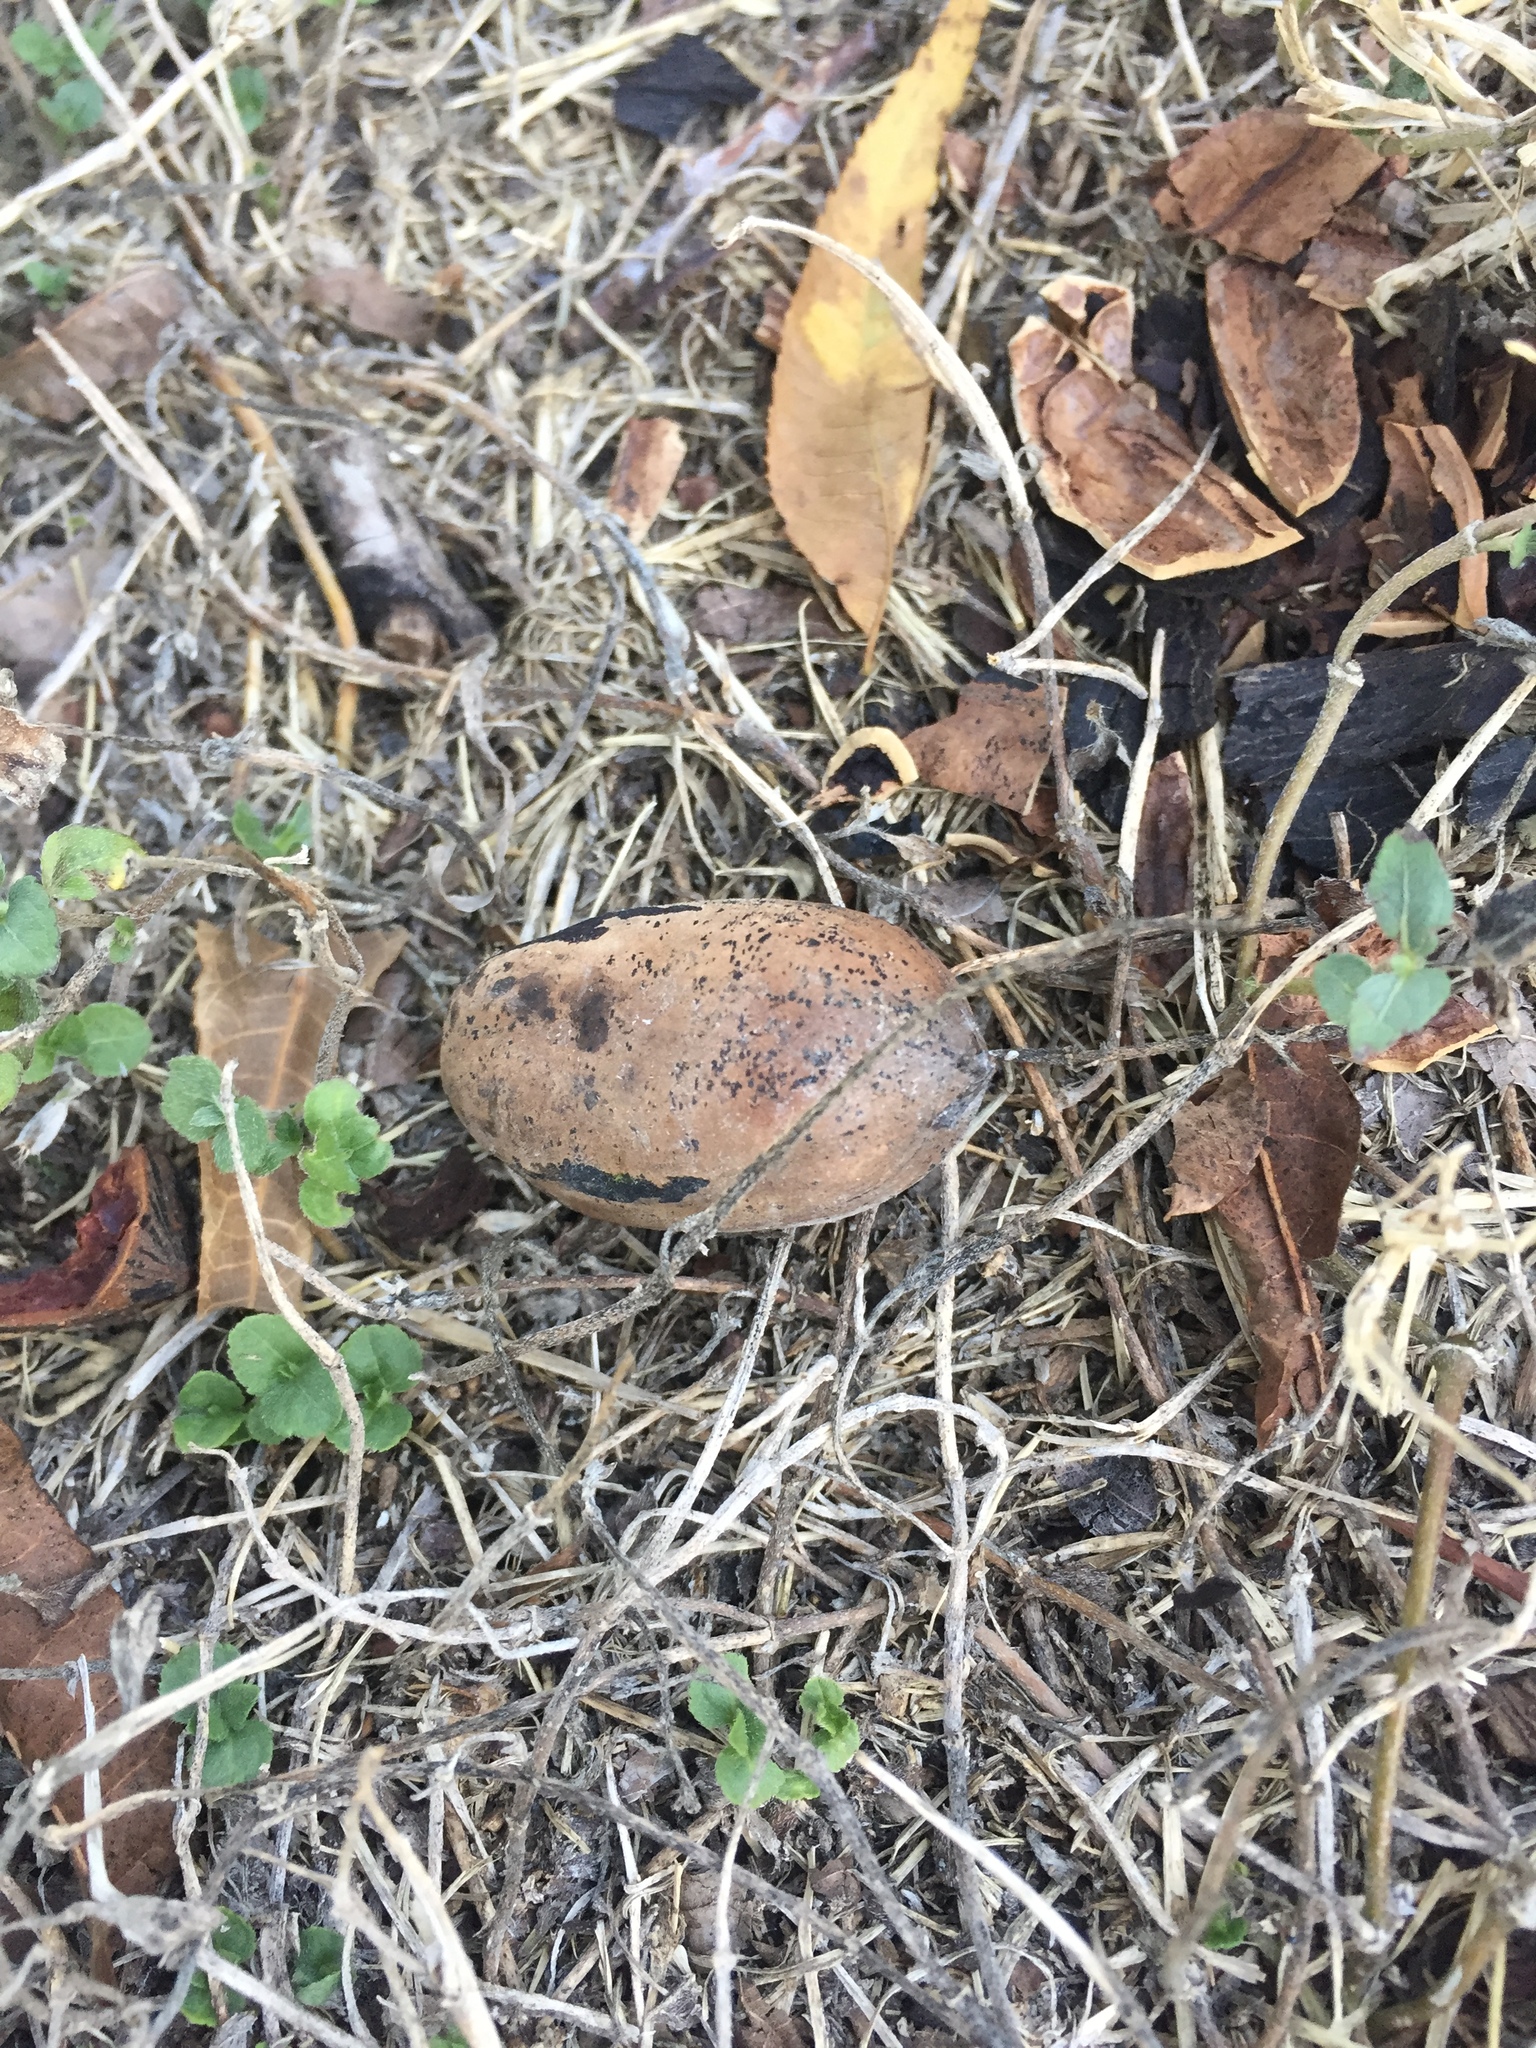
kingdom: Plantae
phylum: Tracheophyta
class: Magnoliopsida
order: Fagales
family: Juglandaceae
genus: Carya
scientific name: Carya illinoinensis
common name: Pecan
